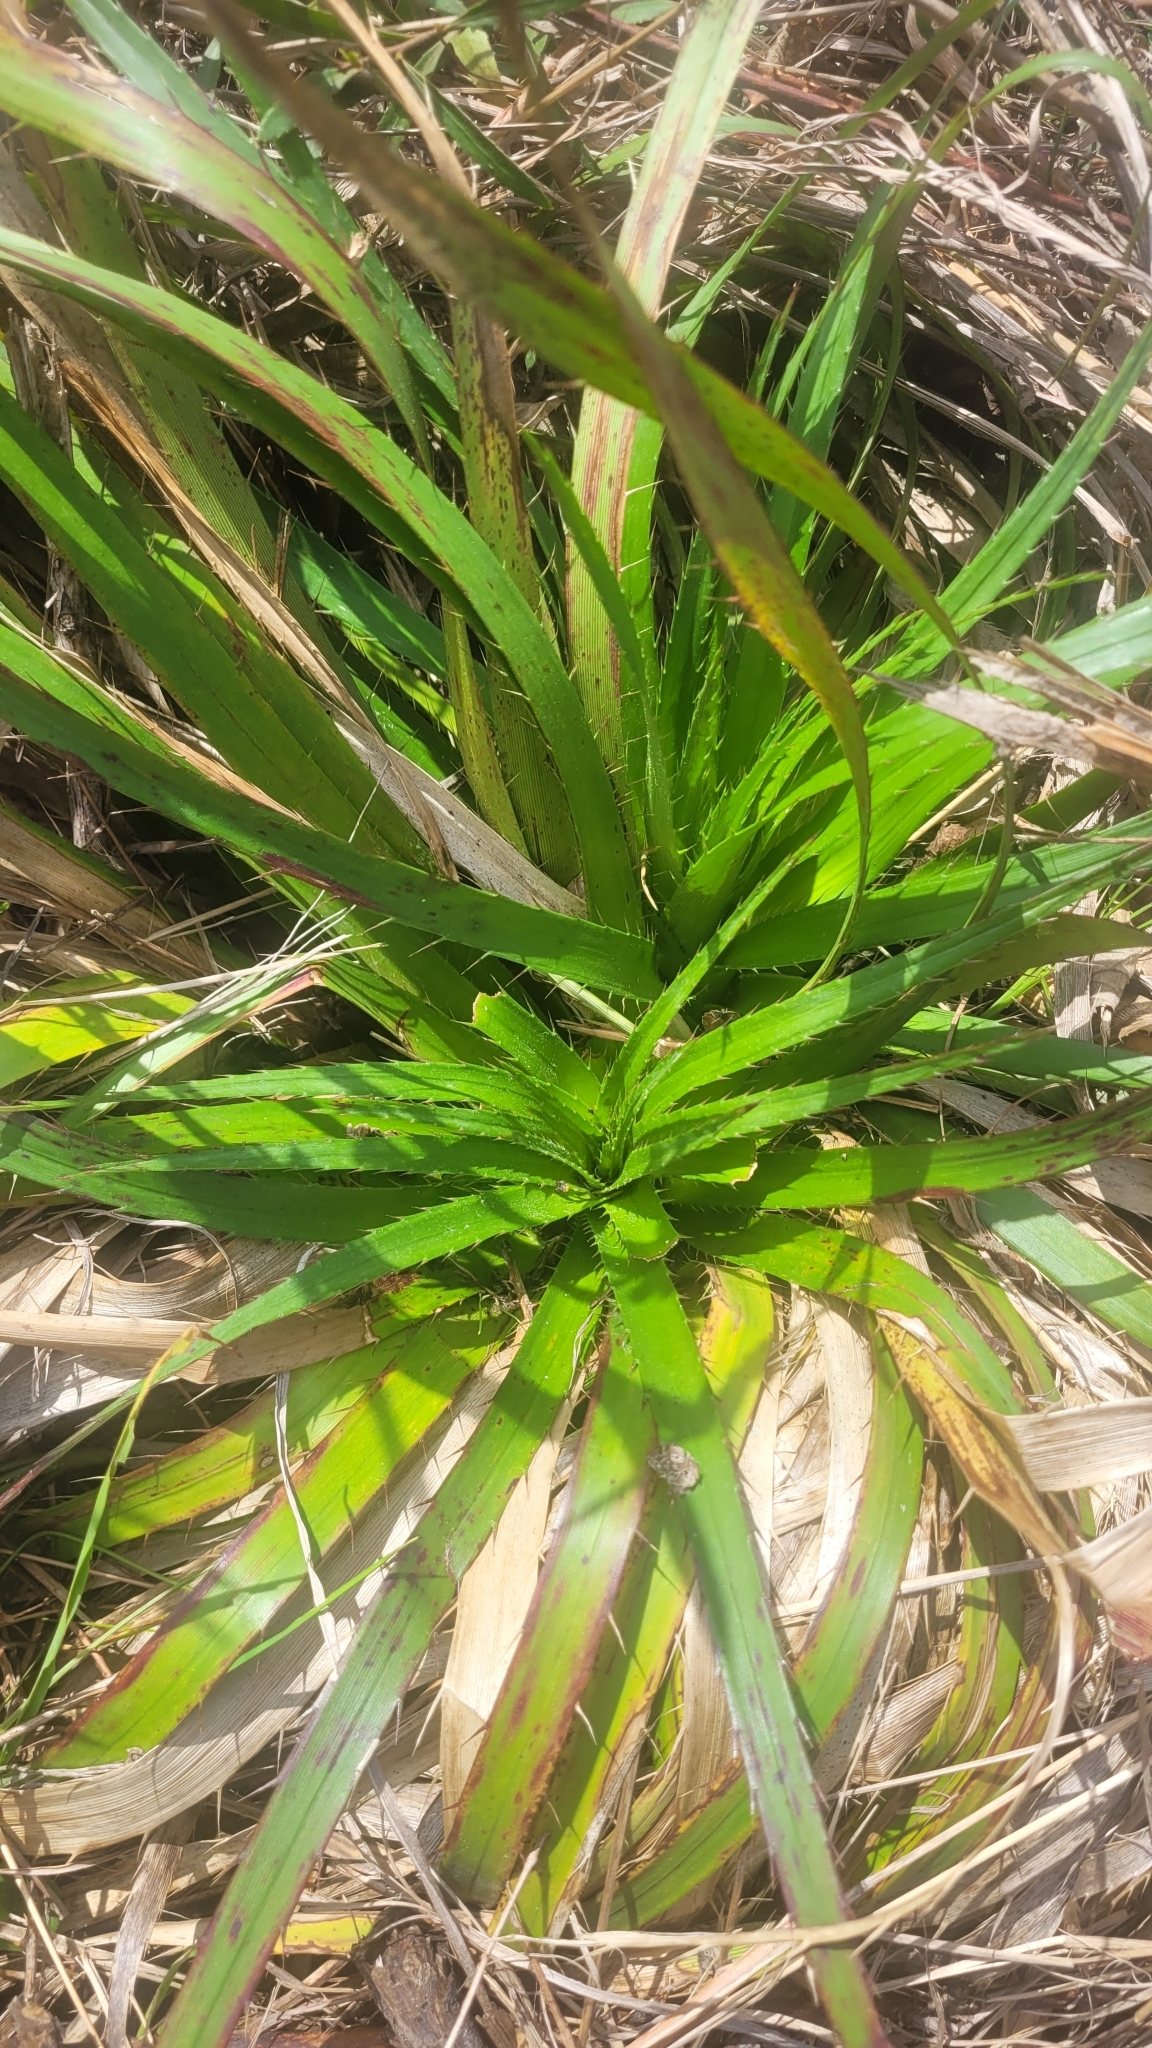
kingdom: Plantae
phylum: Tracheophyta
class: Magnoliopsida
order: Apiales
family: Apiaceae
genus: Eryngium
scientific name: Eryngium humboldtii
